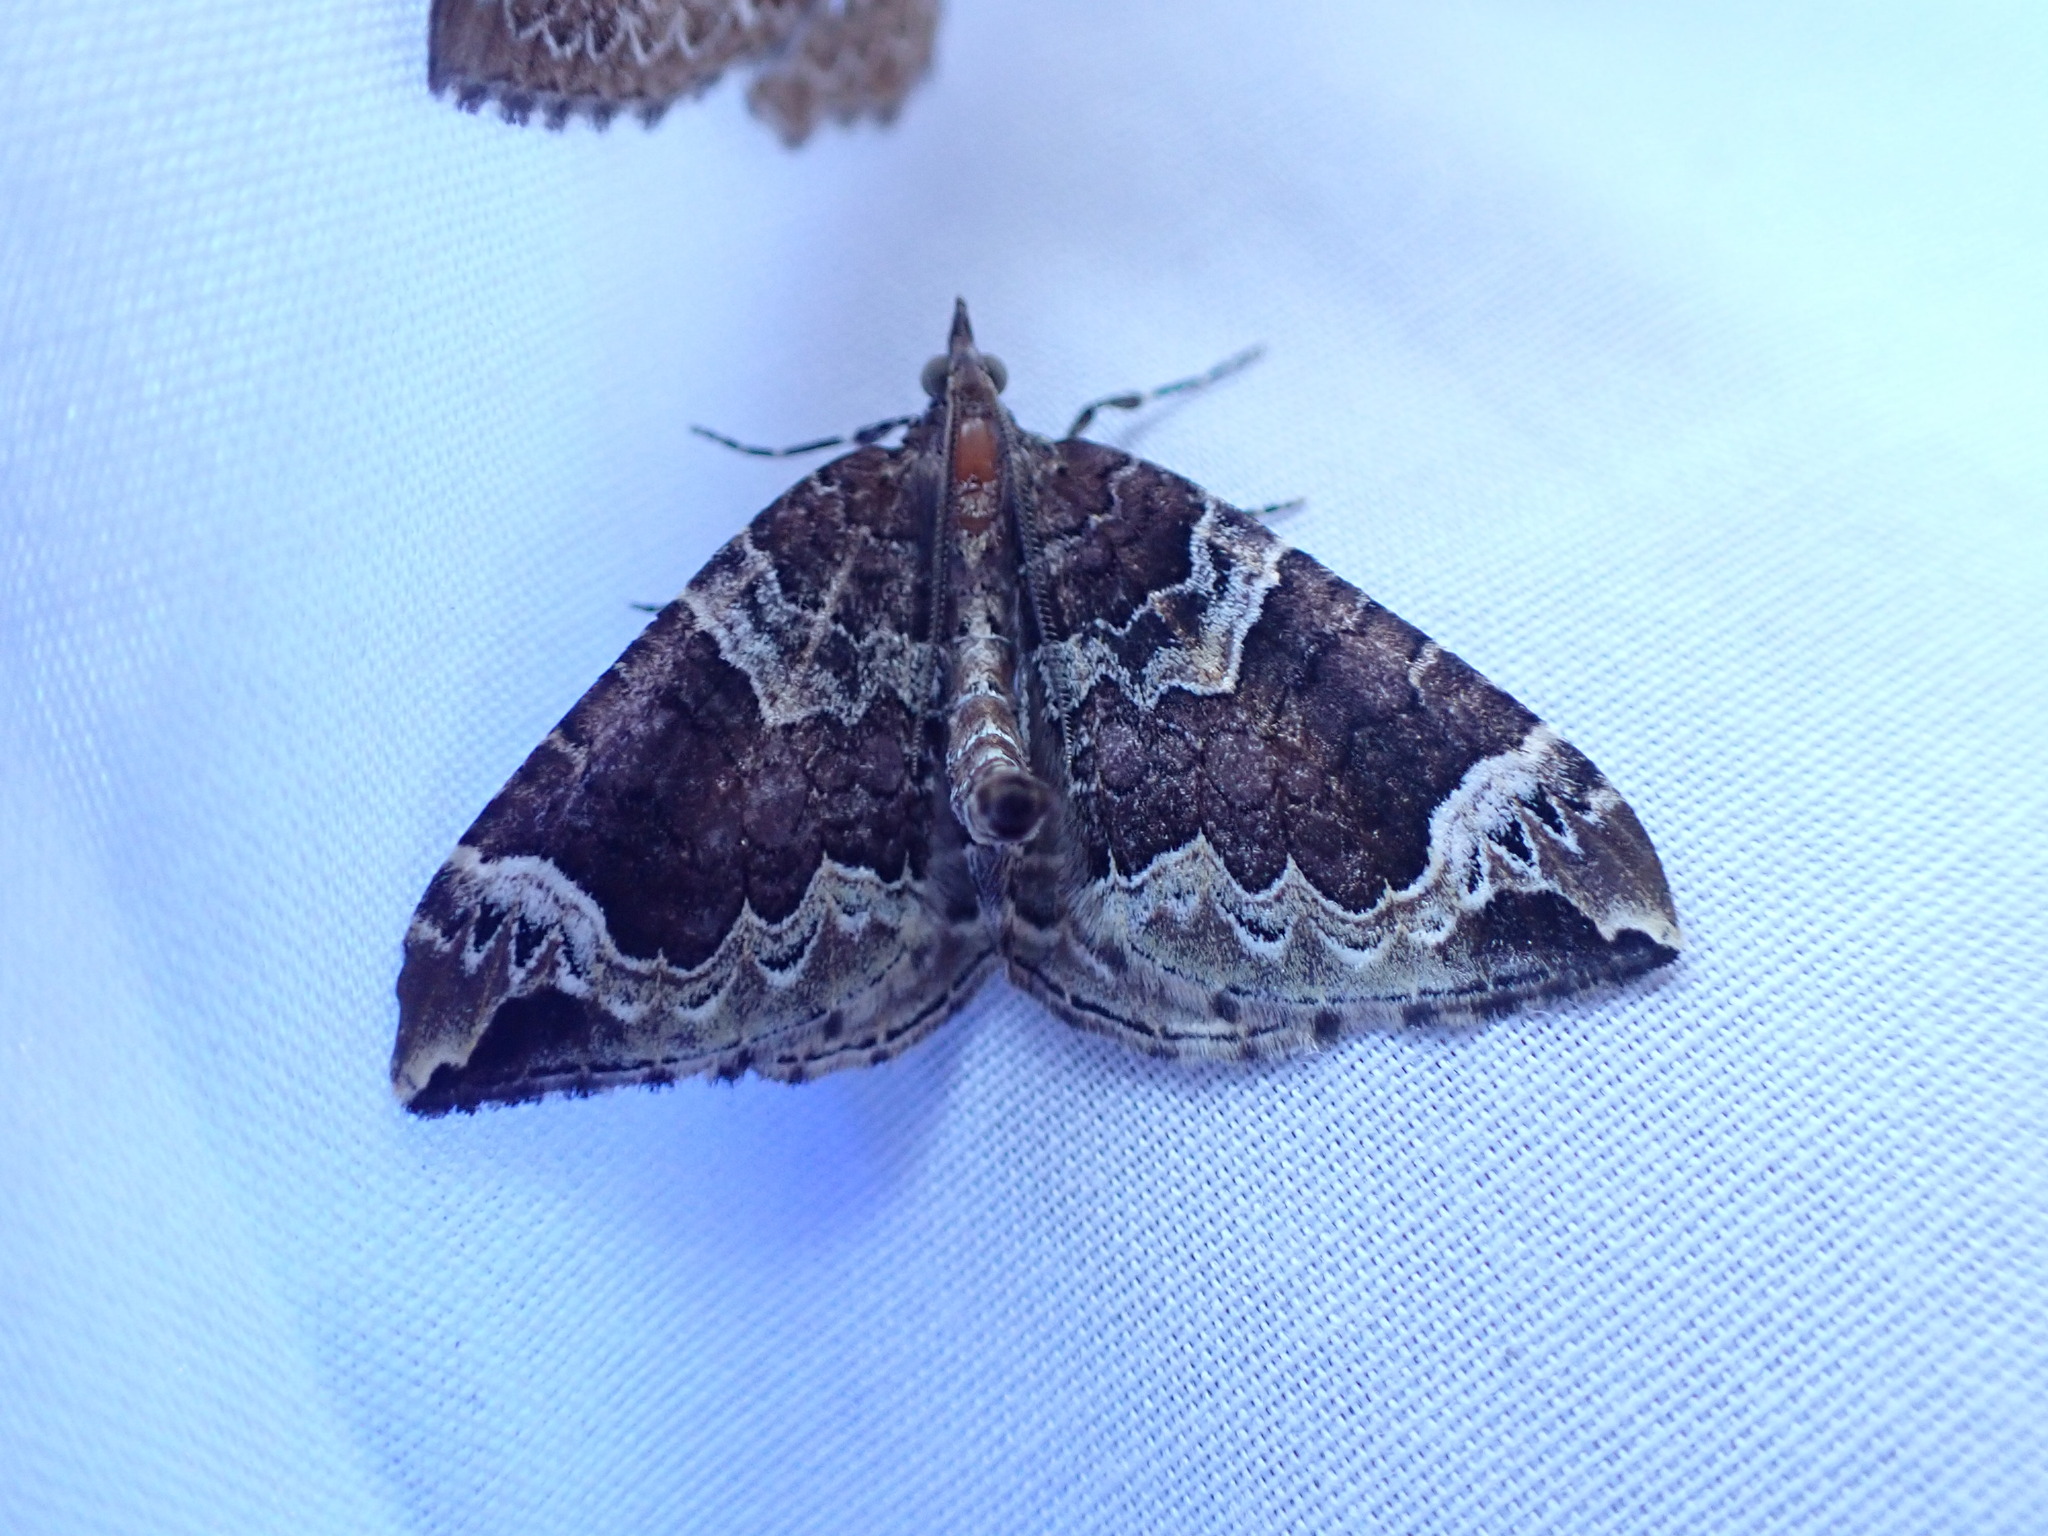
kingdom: Animalia
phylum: Arthropoda
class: Insecta
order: Lepidoptera
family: Geometridae
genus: Eulithis
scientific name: Eulithis xylina
